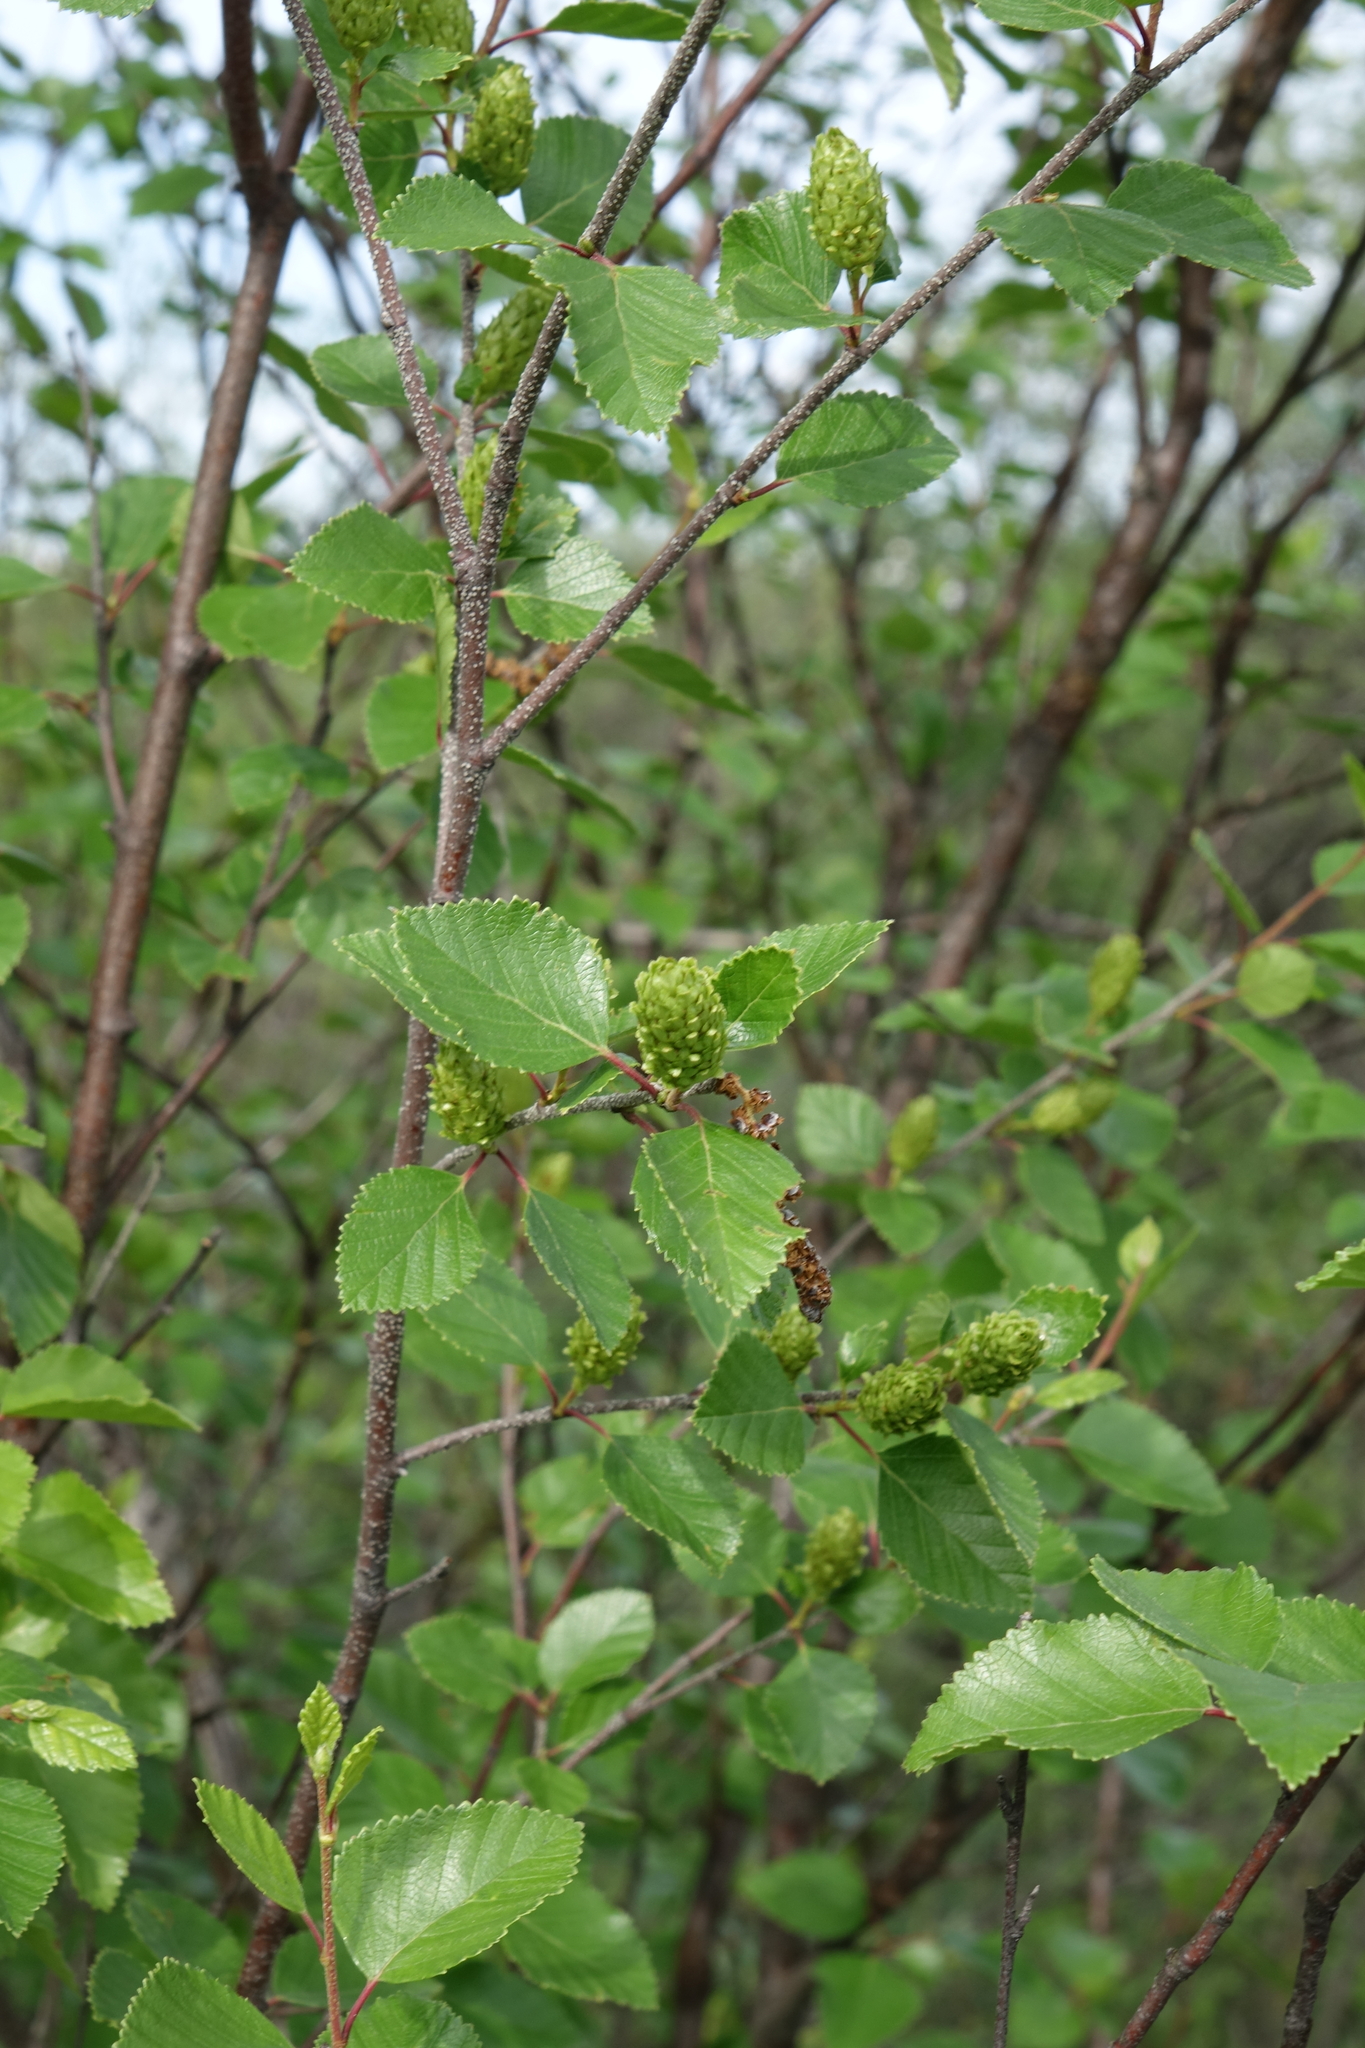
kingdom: Plantae
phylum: Tracheophyta
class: Magnoliopsida
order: Fagales
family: Betulaceae
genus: Betula
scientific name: Betula humilis
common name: Shrubby birch
